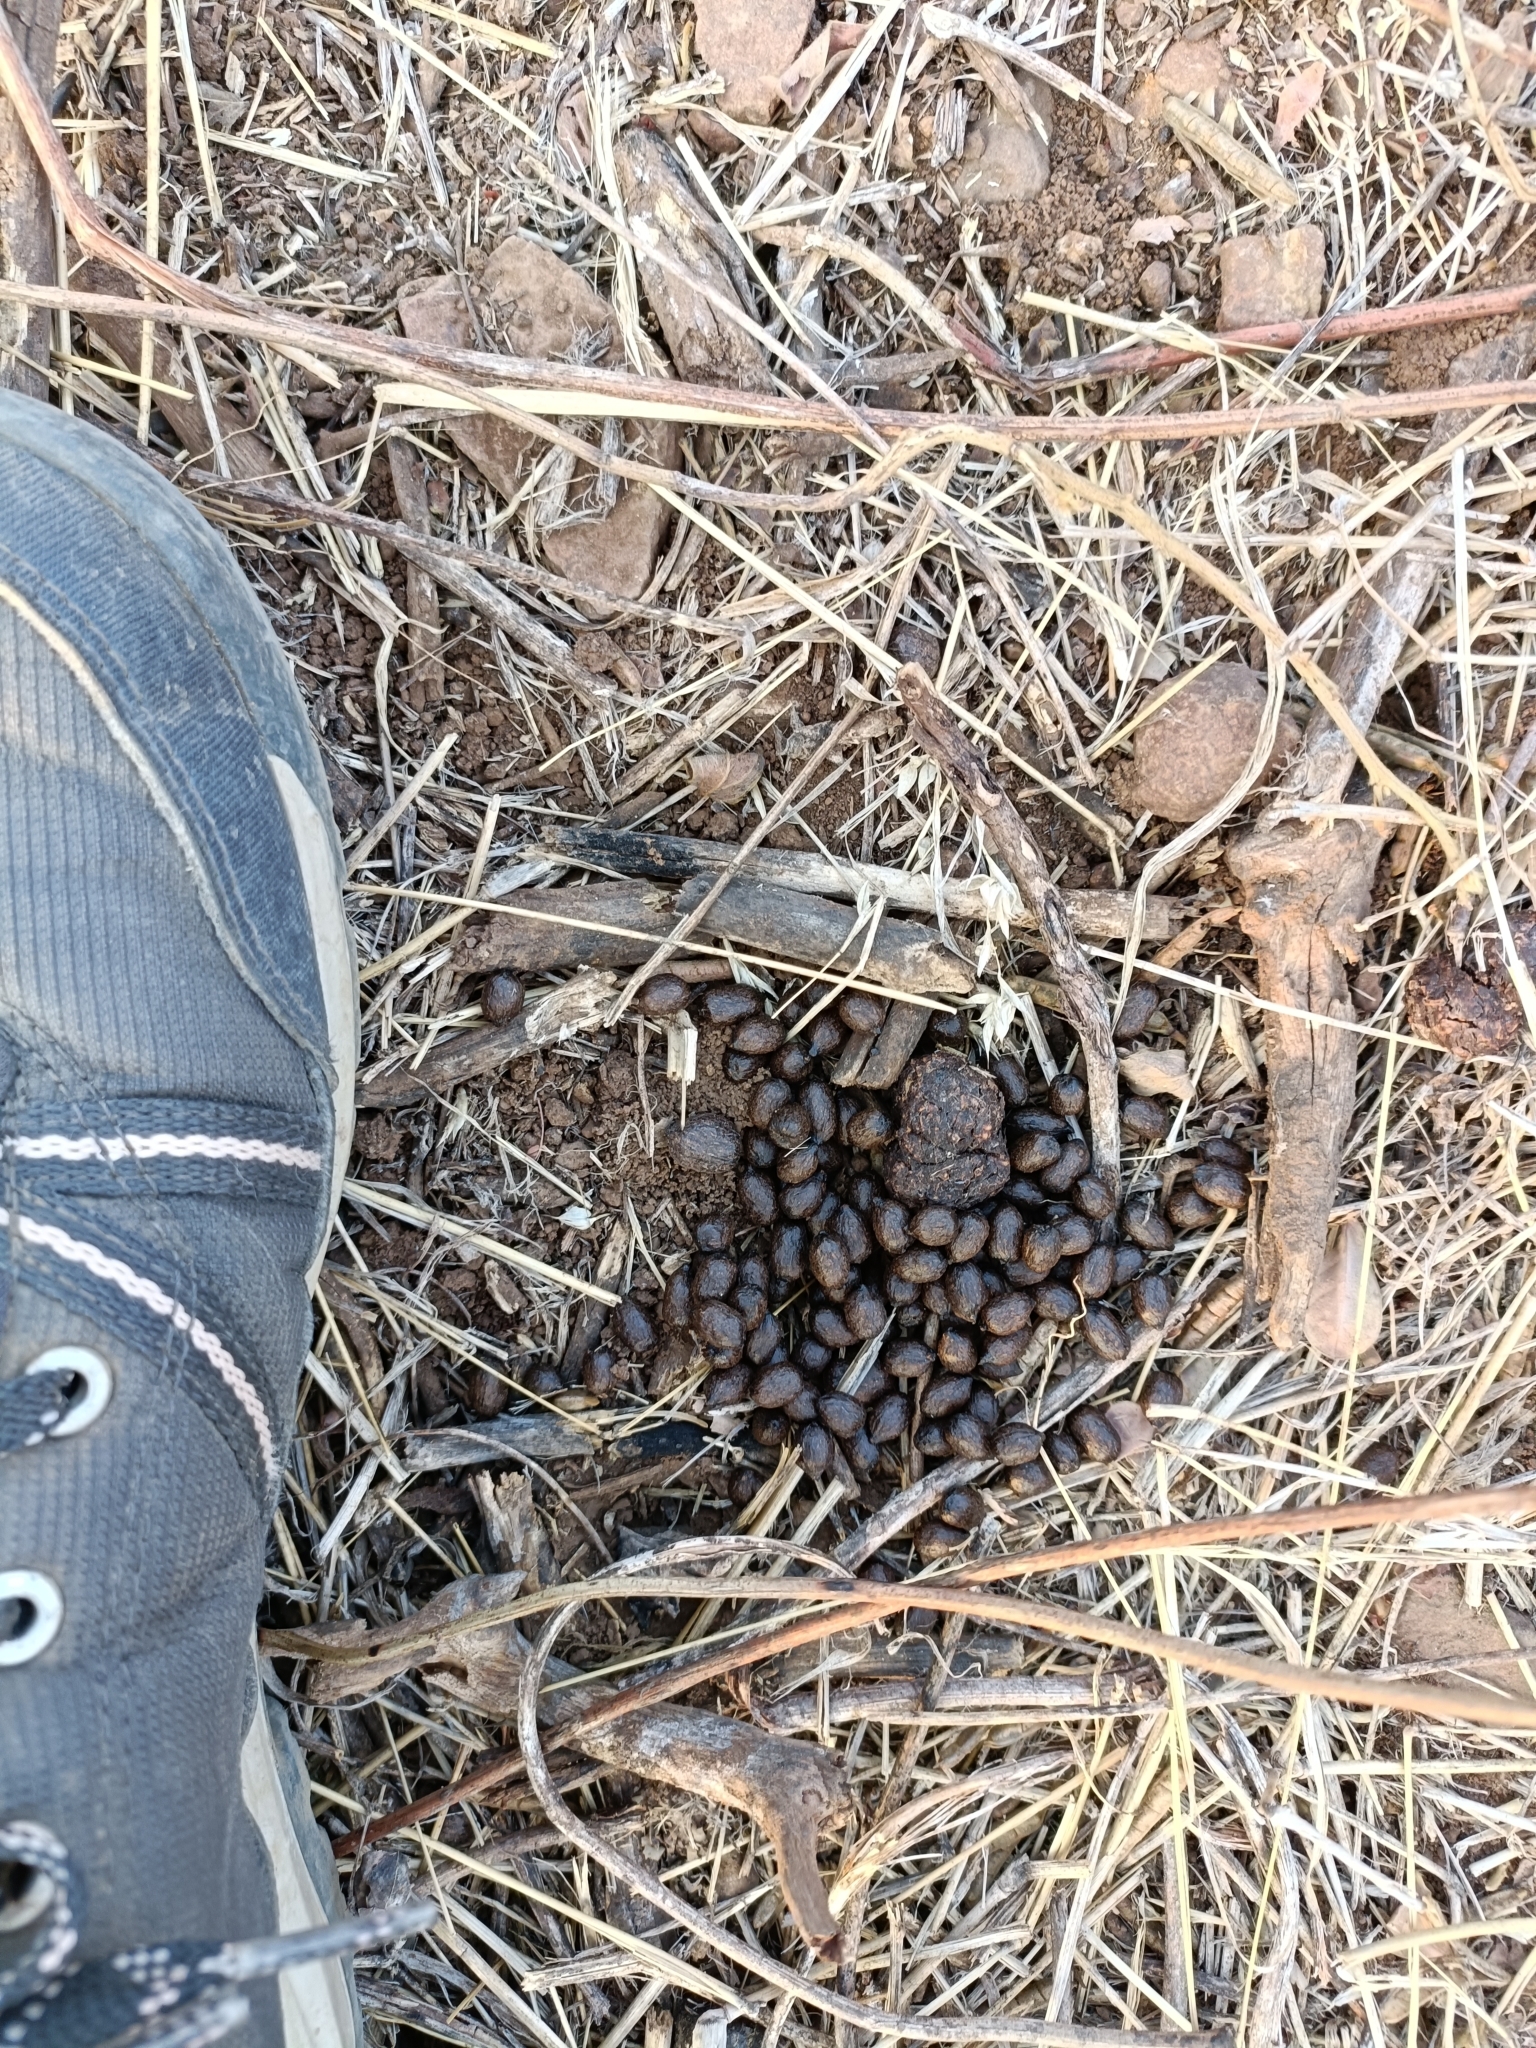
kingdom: Animalia
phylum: Chordata
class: Mammalia
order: Artiodactyla
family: Bovidae
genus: Gazella
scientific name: Gazella bennettii
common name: Indian gazelle
